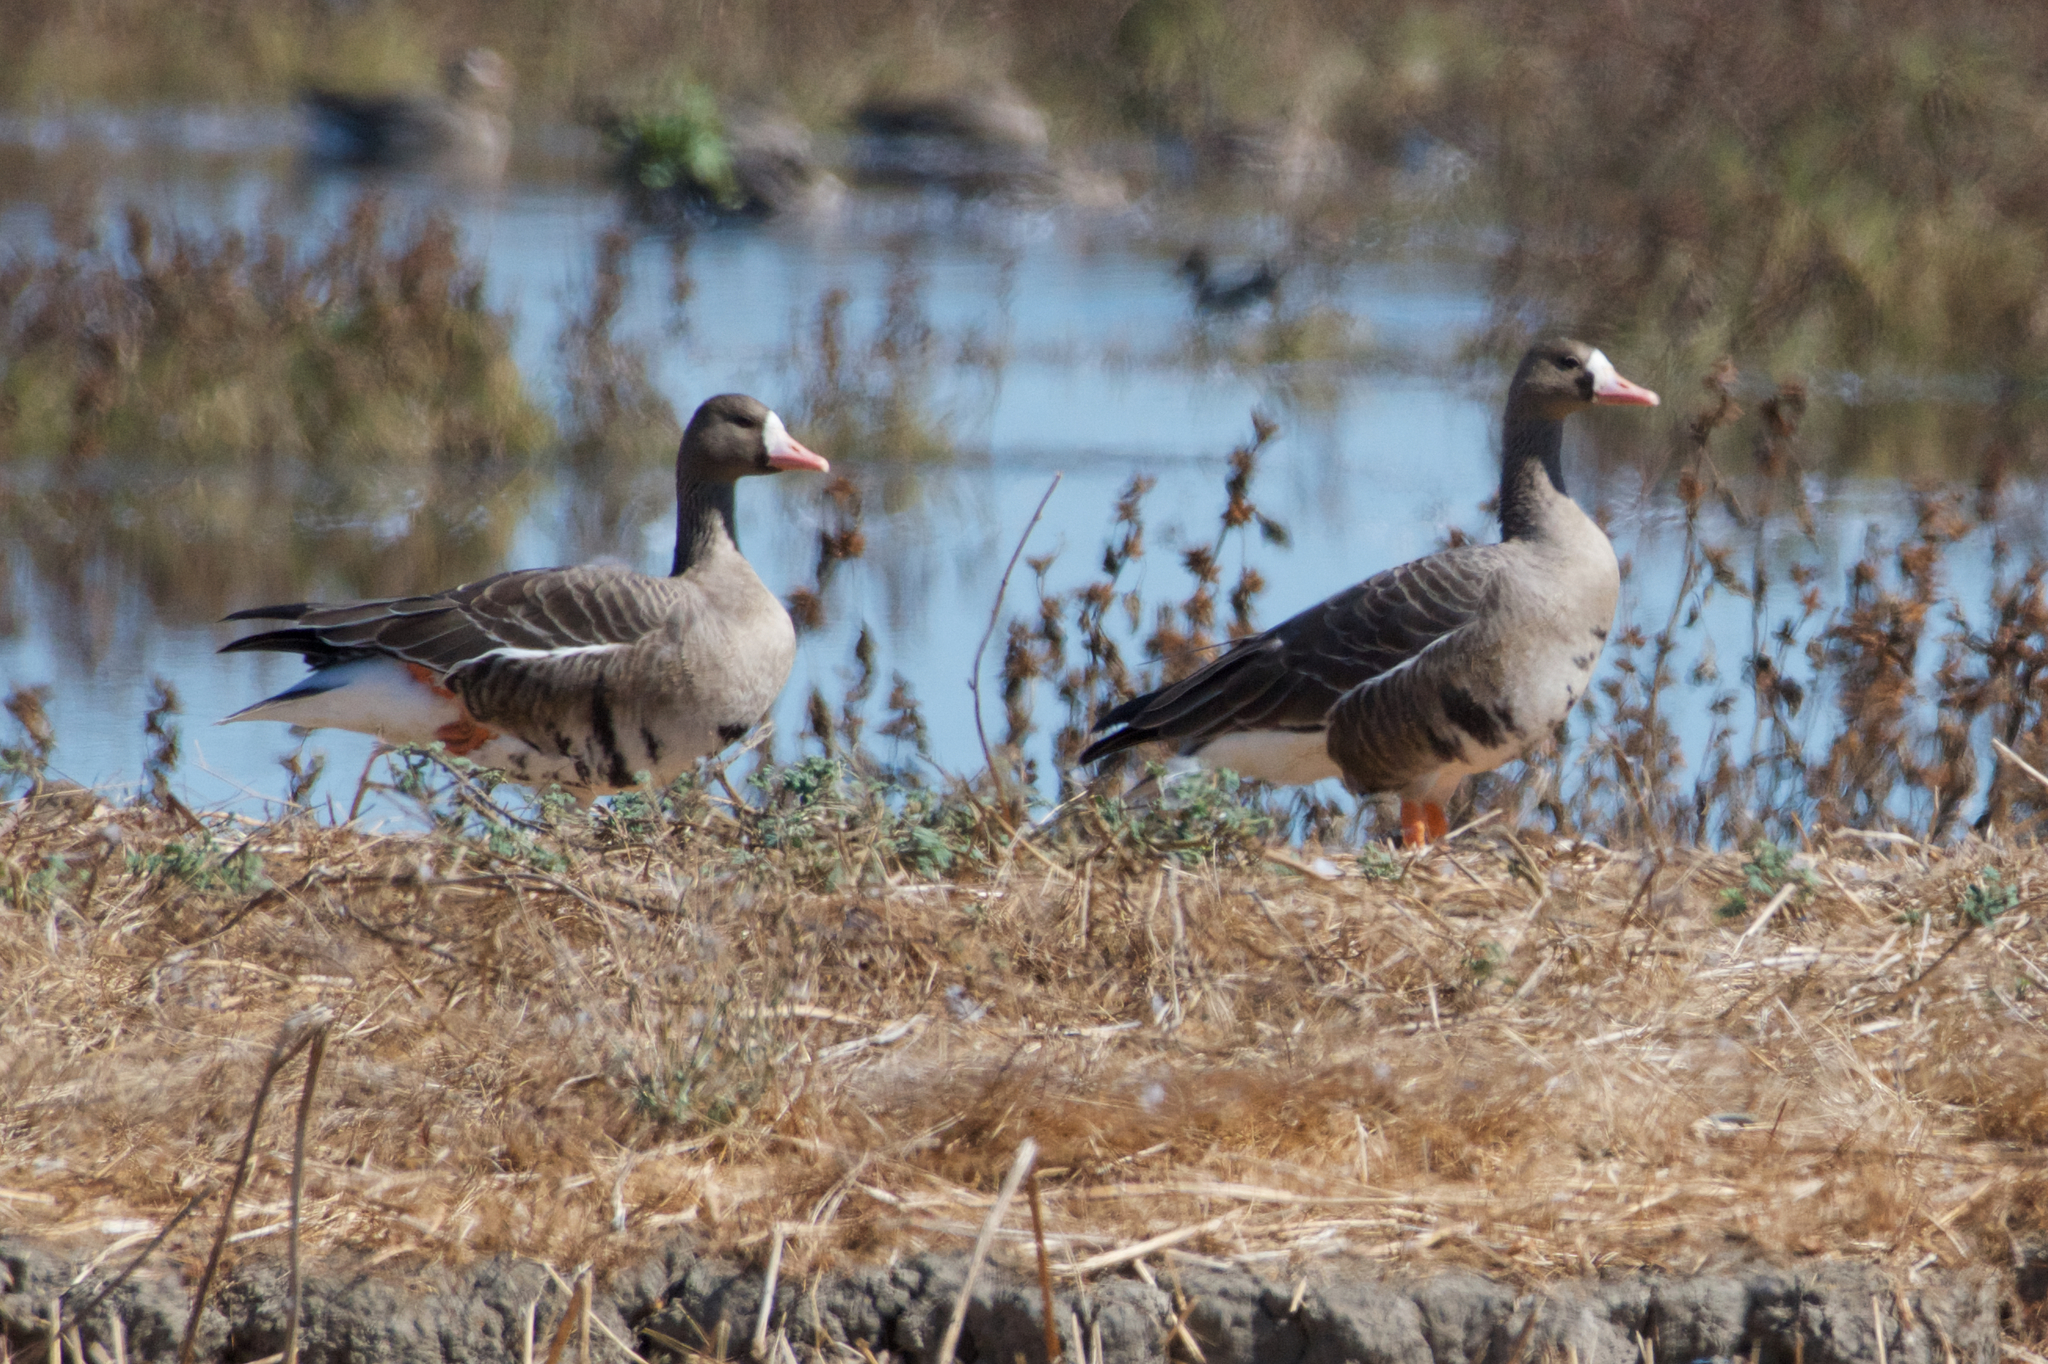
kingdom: Animalia
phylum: Chordata
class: Aves
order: Anseriformes
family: Anatidae
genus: Anser
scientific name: Anser albifrons
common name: Greater white-fronted goose
